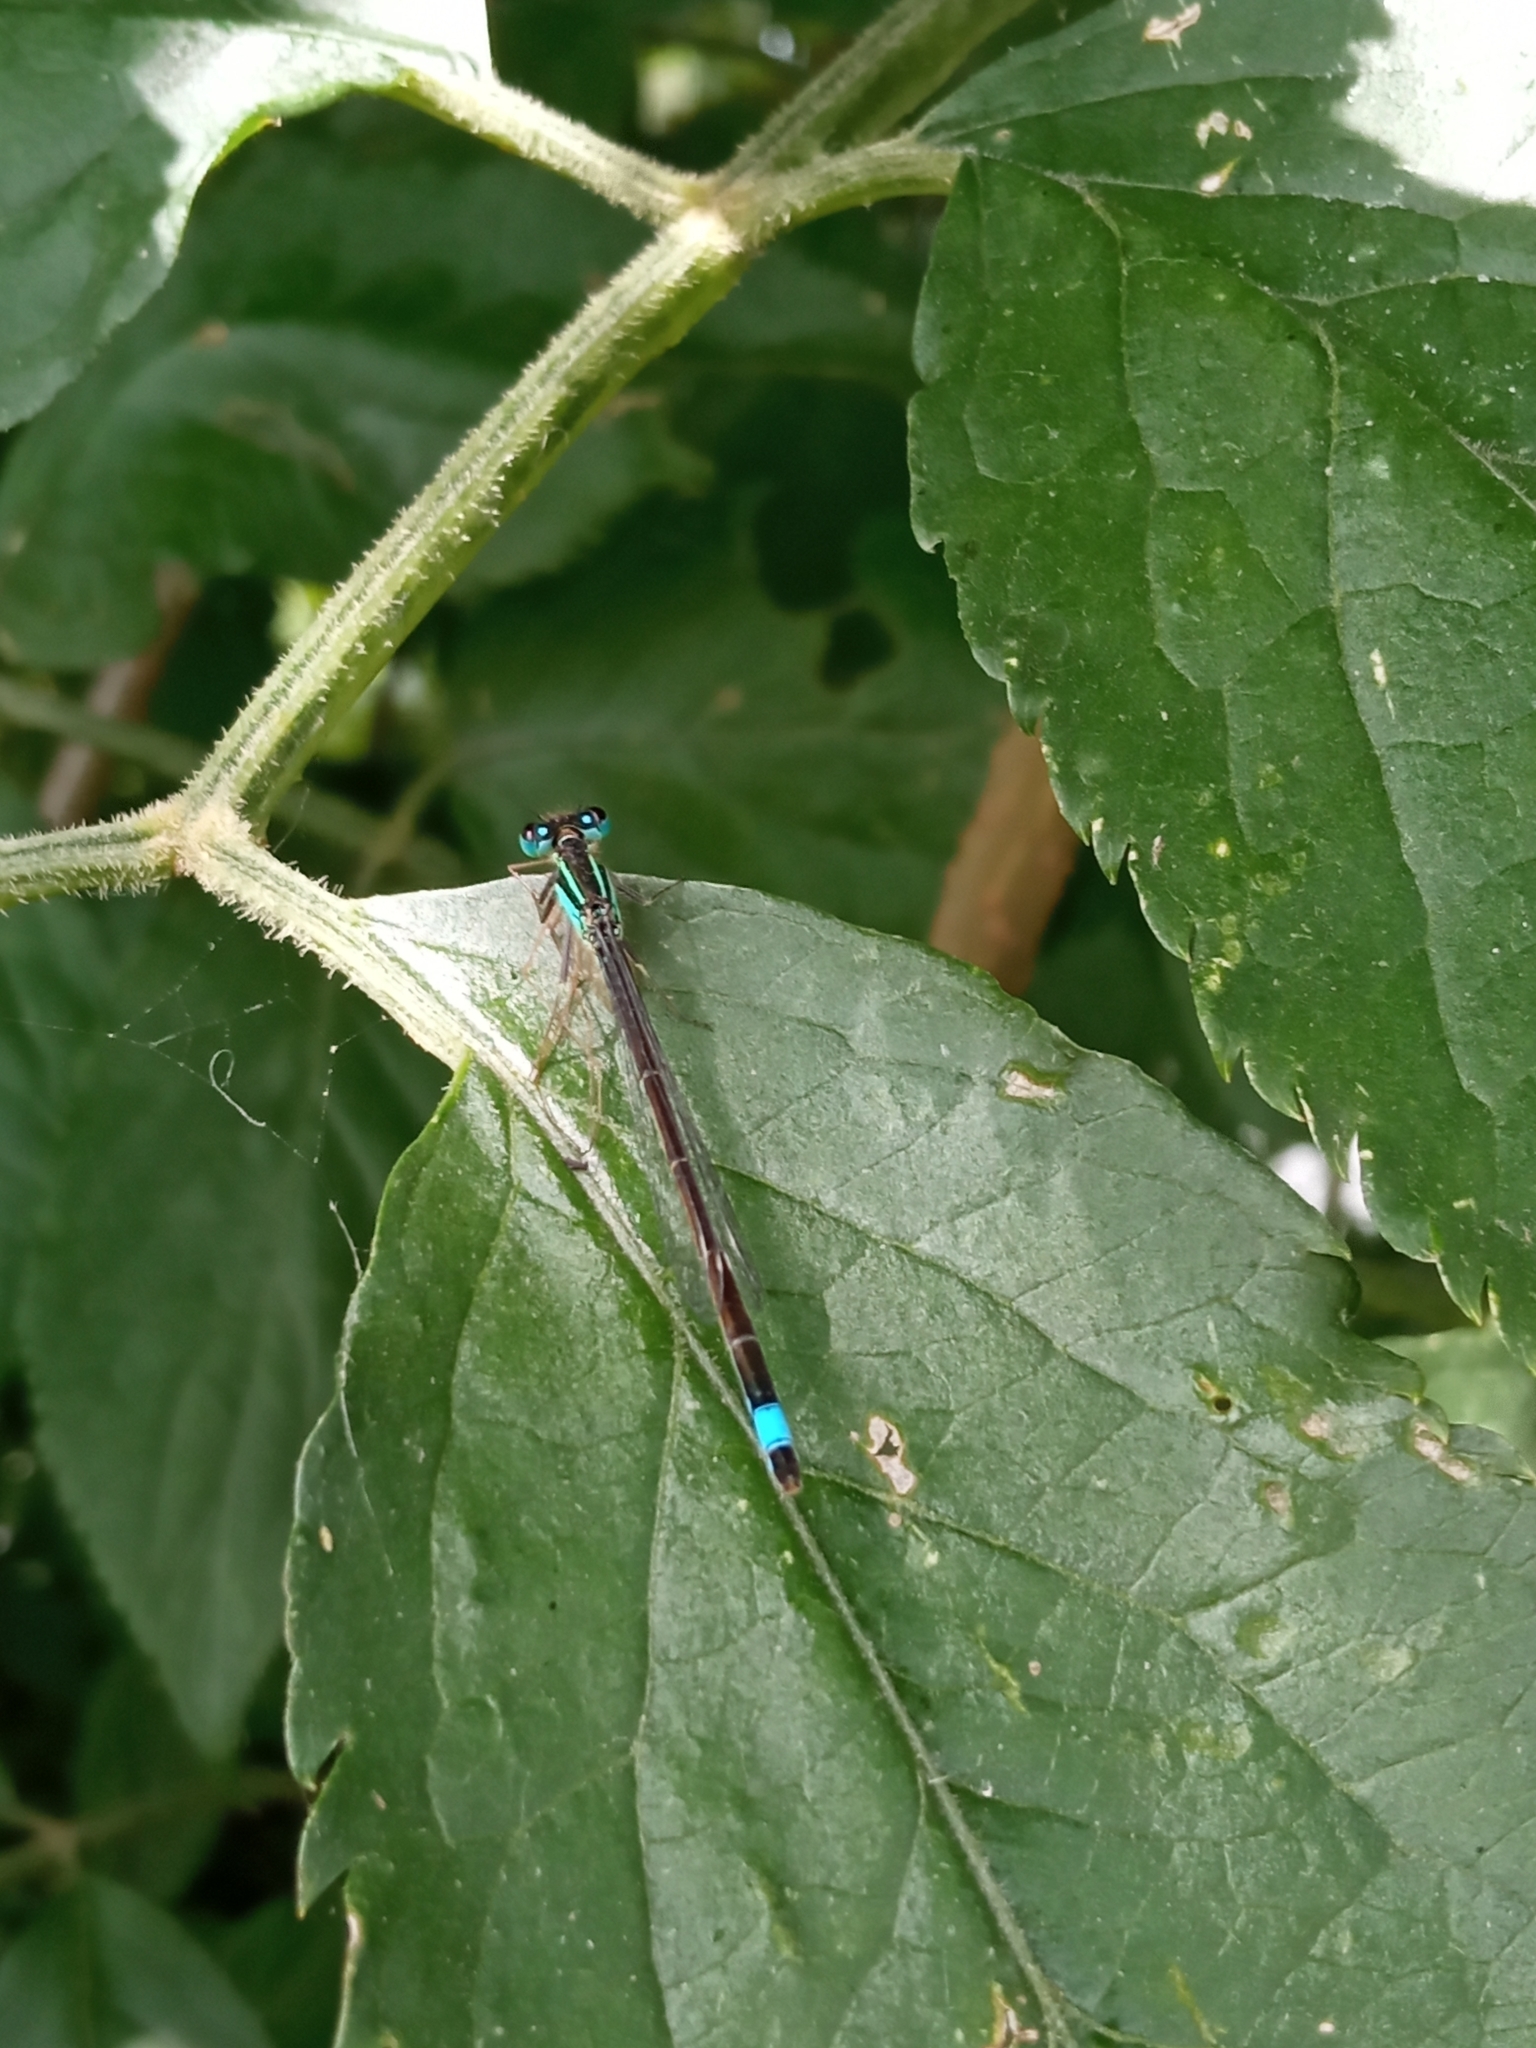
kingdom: Animalia
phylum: Arthropoda
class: Insecta
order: Odonata
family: Coenagrionidae
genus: Ischnura
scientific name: Ischnura elegans
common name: Blue-tailed damselfly
